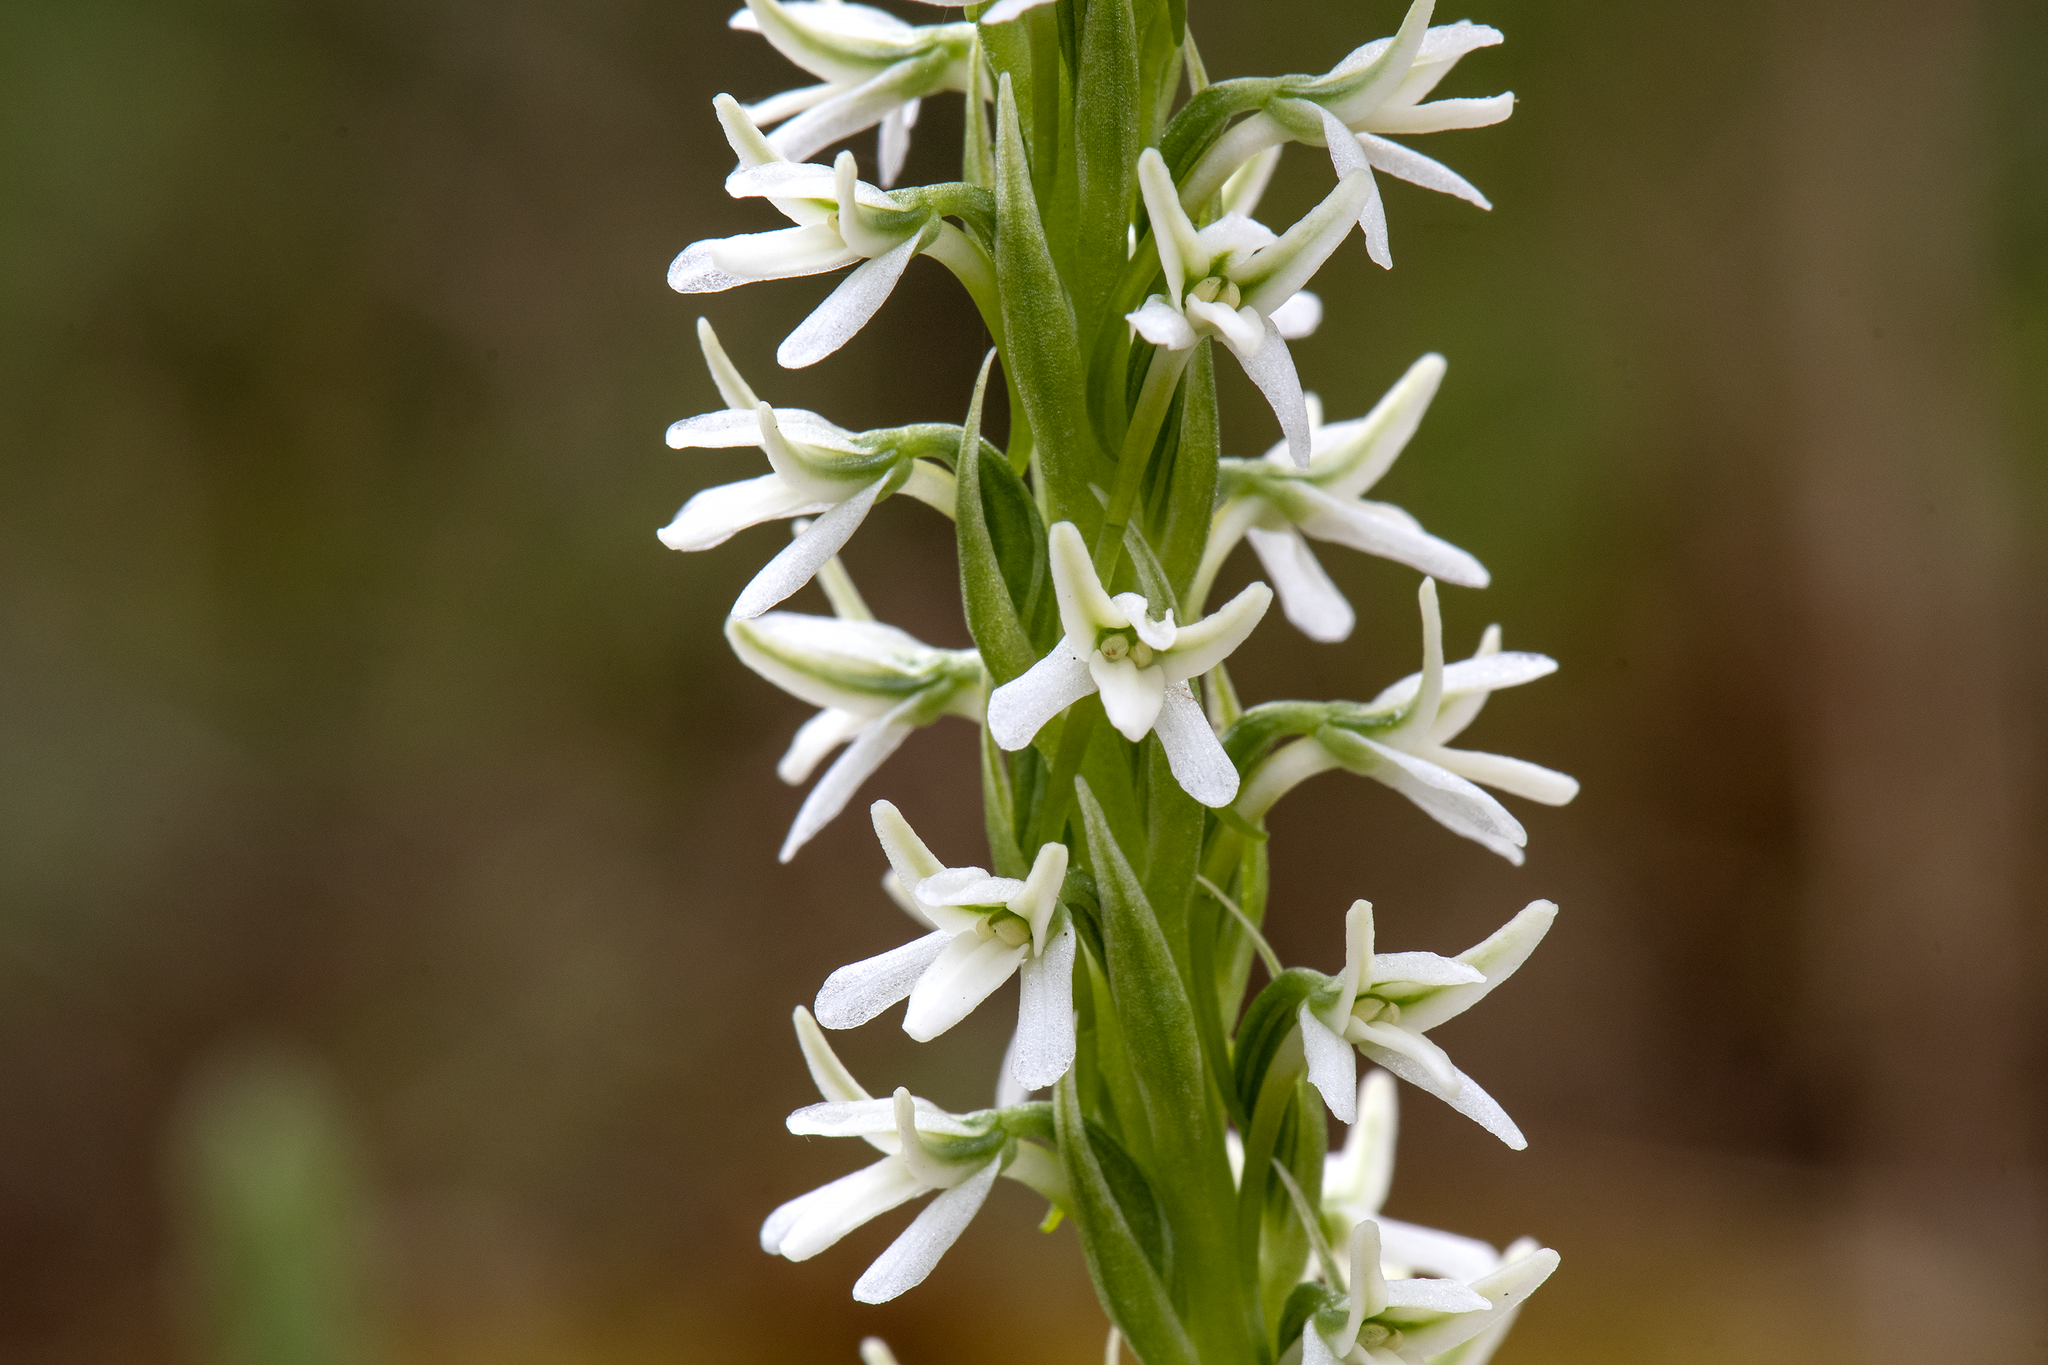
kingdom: Plantae
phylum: Tracheophyta
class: Liliopsida
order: Asparagales
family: Orchidaceae
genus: Platanthera
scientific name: Platanthera elegans
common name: Coast piperia
